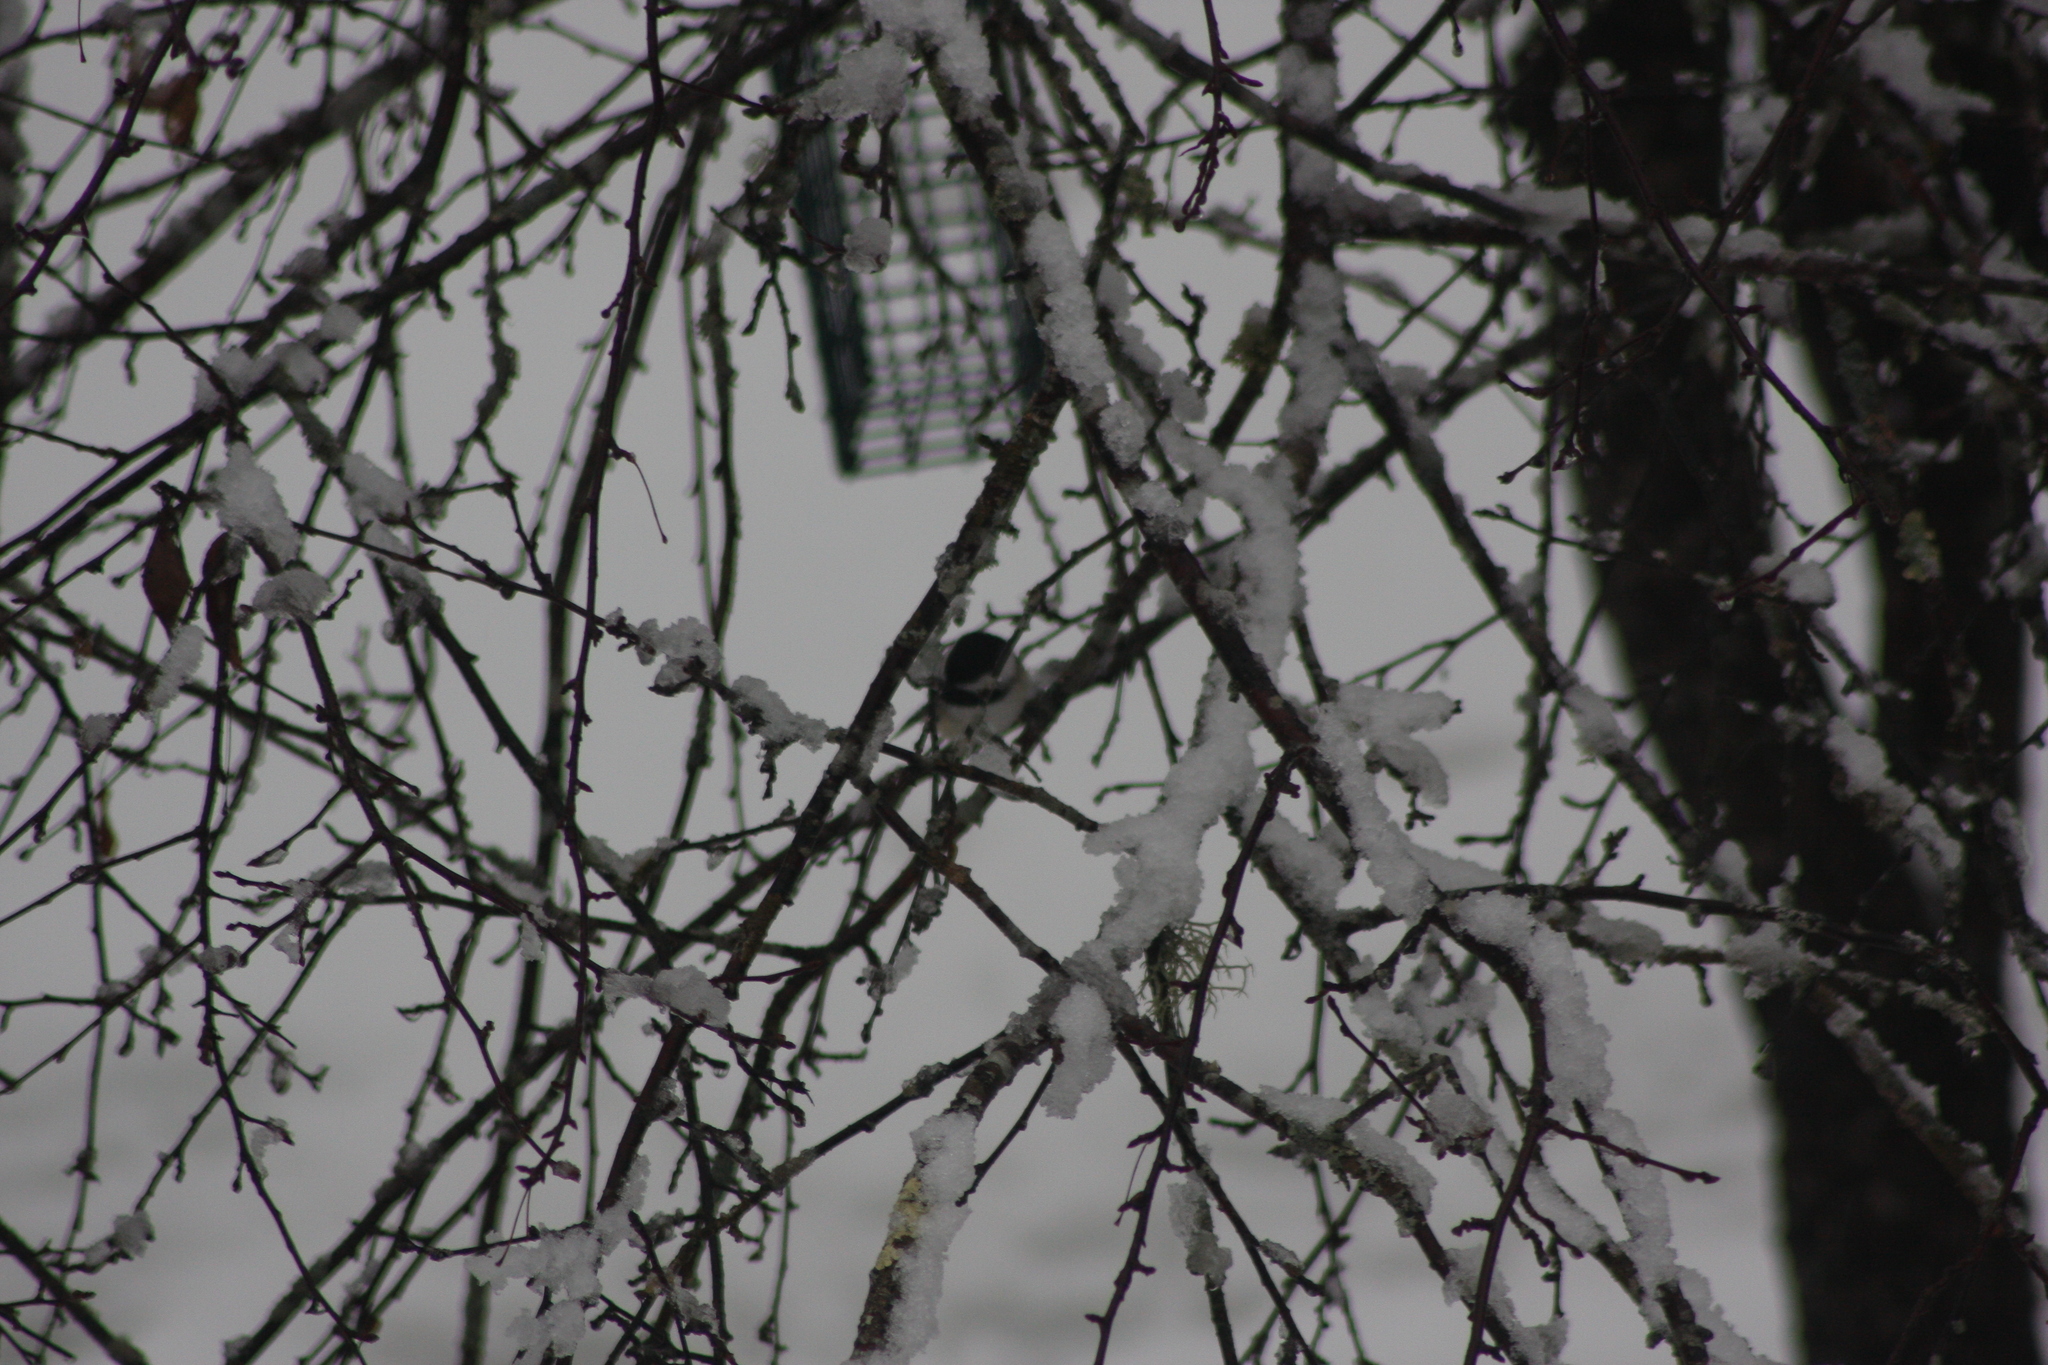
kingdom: Animalia
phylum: Chordata
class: Aves
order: Passeriformes
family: Paridae
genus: Poecile
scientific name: Poecile atricapillus
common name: Black-capped chickadee
